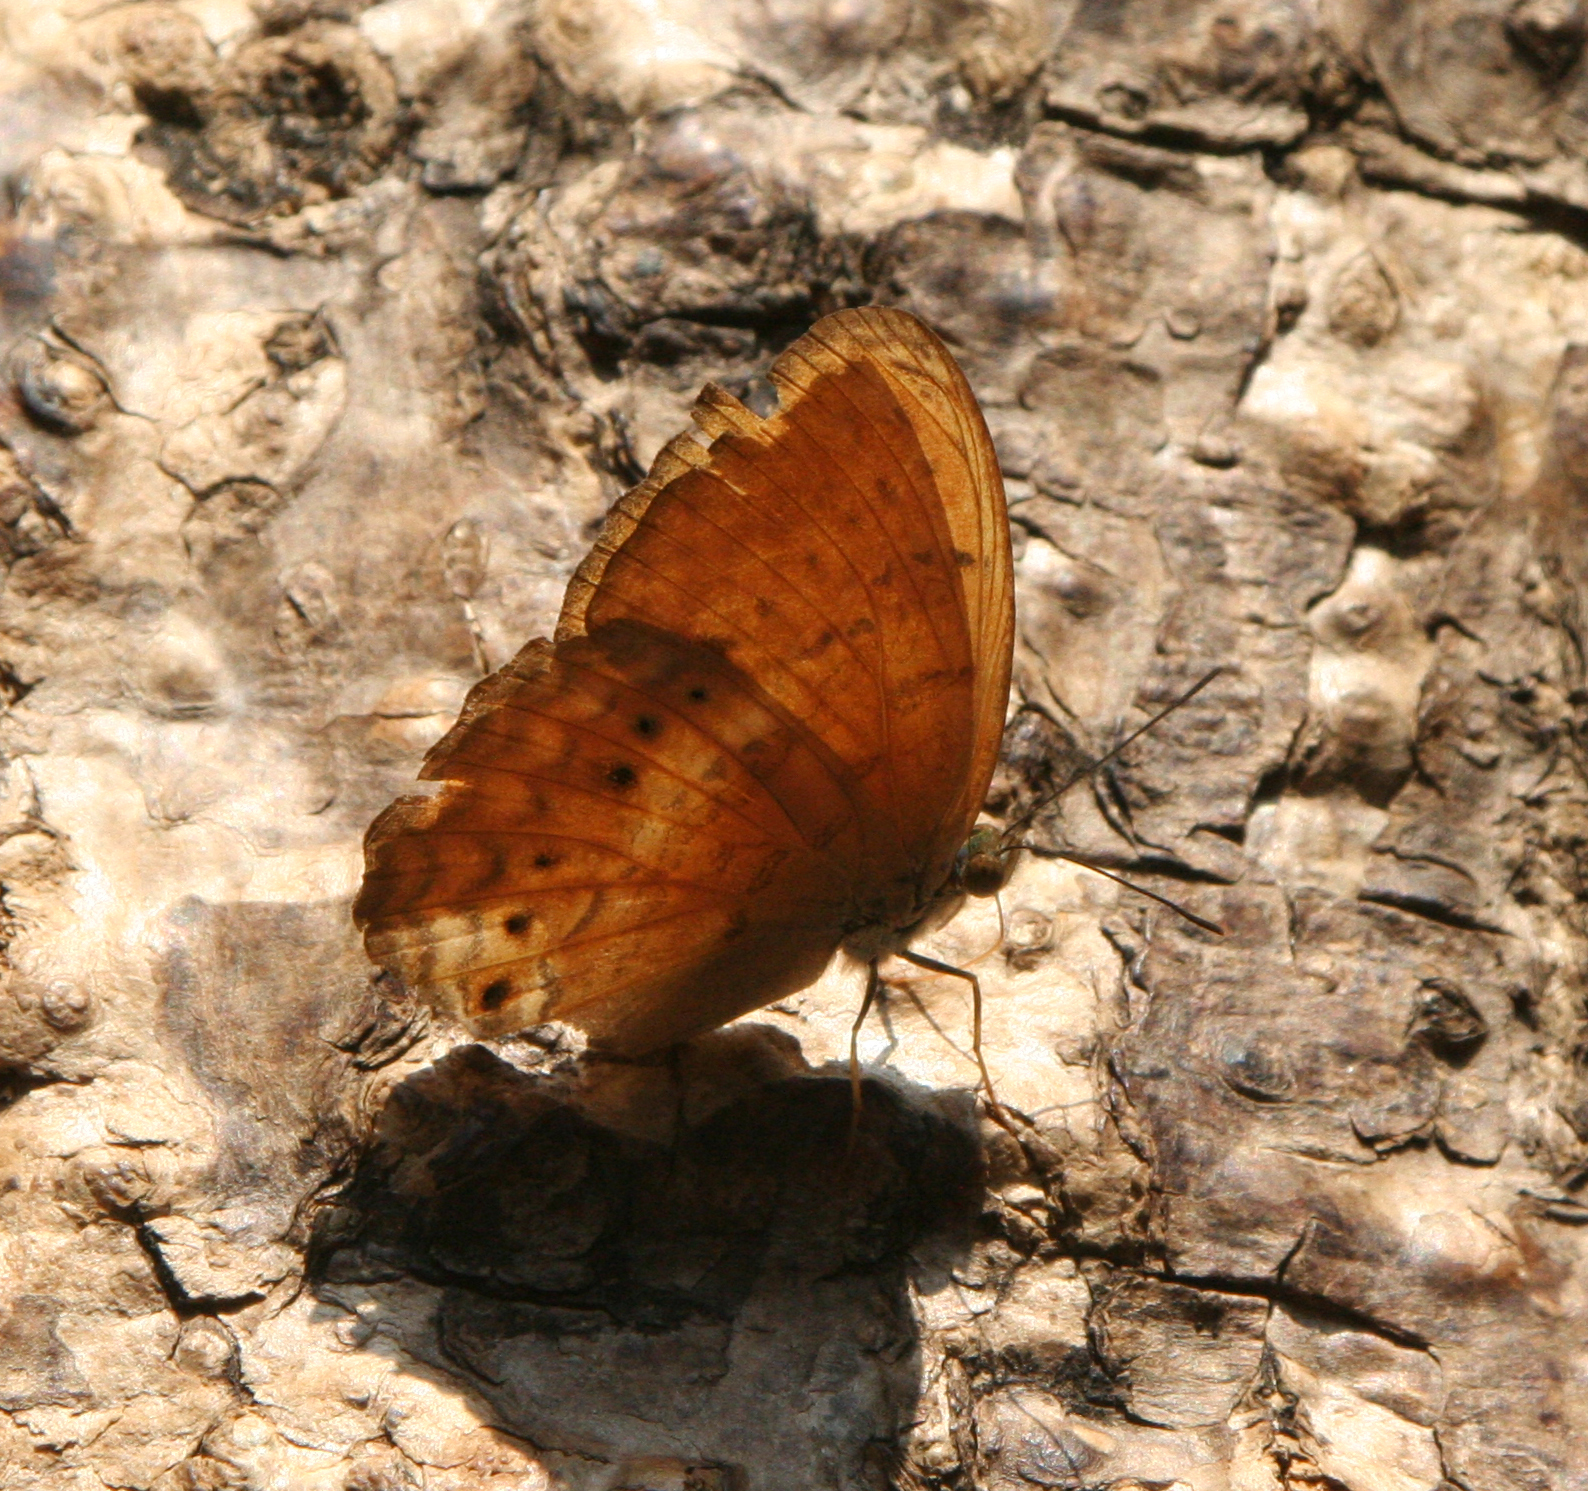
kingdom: Animalia
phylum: Arthropoda
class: Insecta
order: Lepidoptera
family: Nymphalidae
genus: Cirrochroa
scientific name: Cirrochroa tyche
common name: Common yeoman
